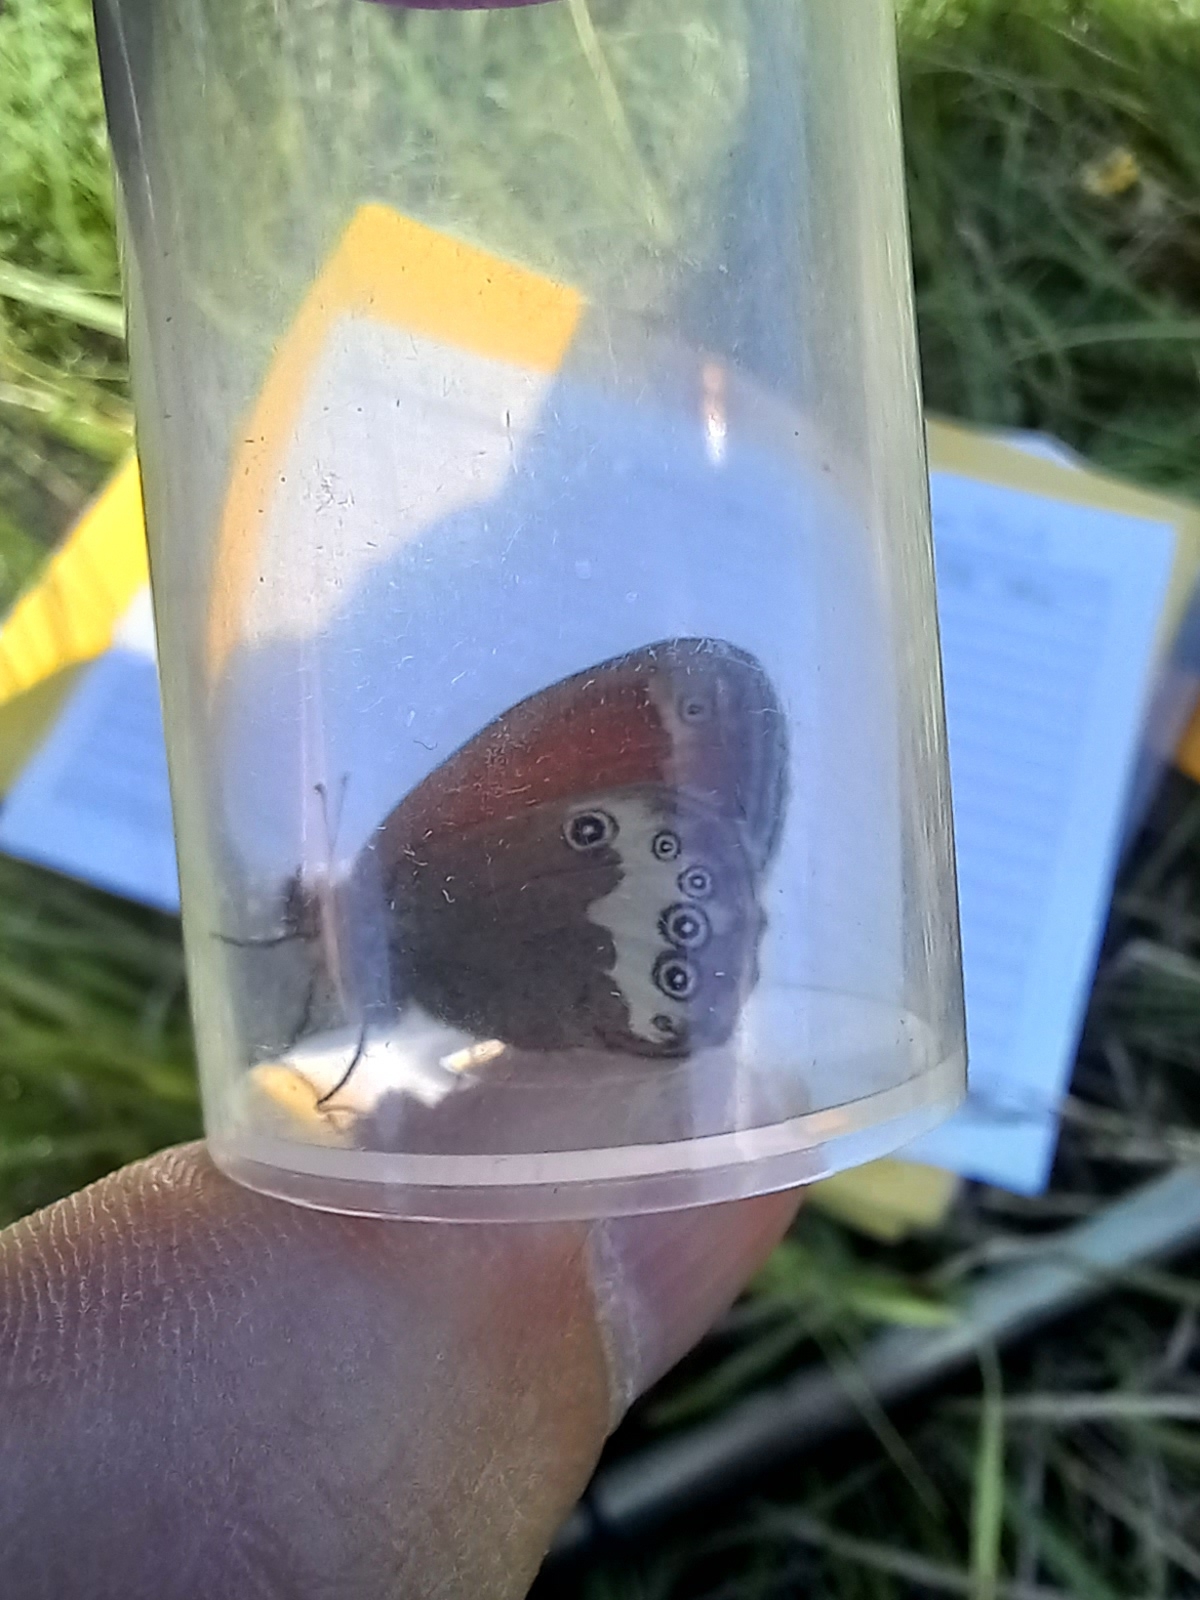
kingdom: Animalia
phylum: Arthropoda
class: Insecta
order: Lepidoptera
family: Nymphalidae
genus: Coenonympha
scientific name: Coenonympha arcania
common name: Pearly heath
